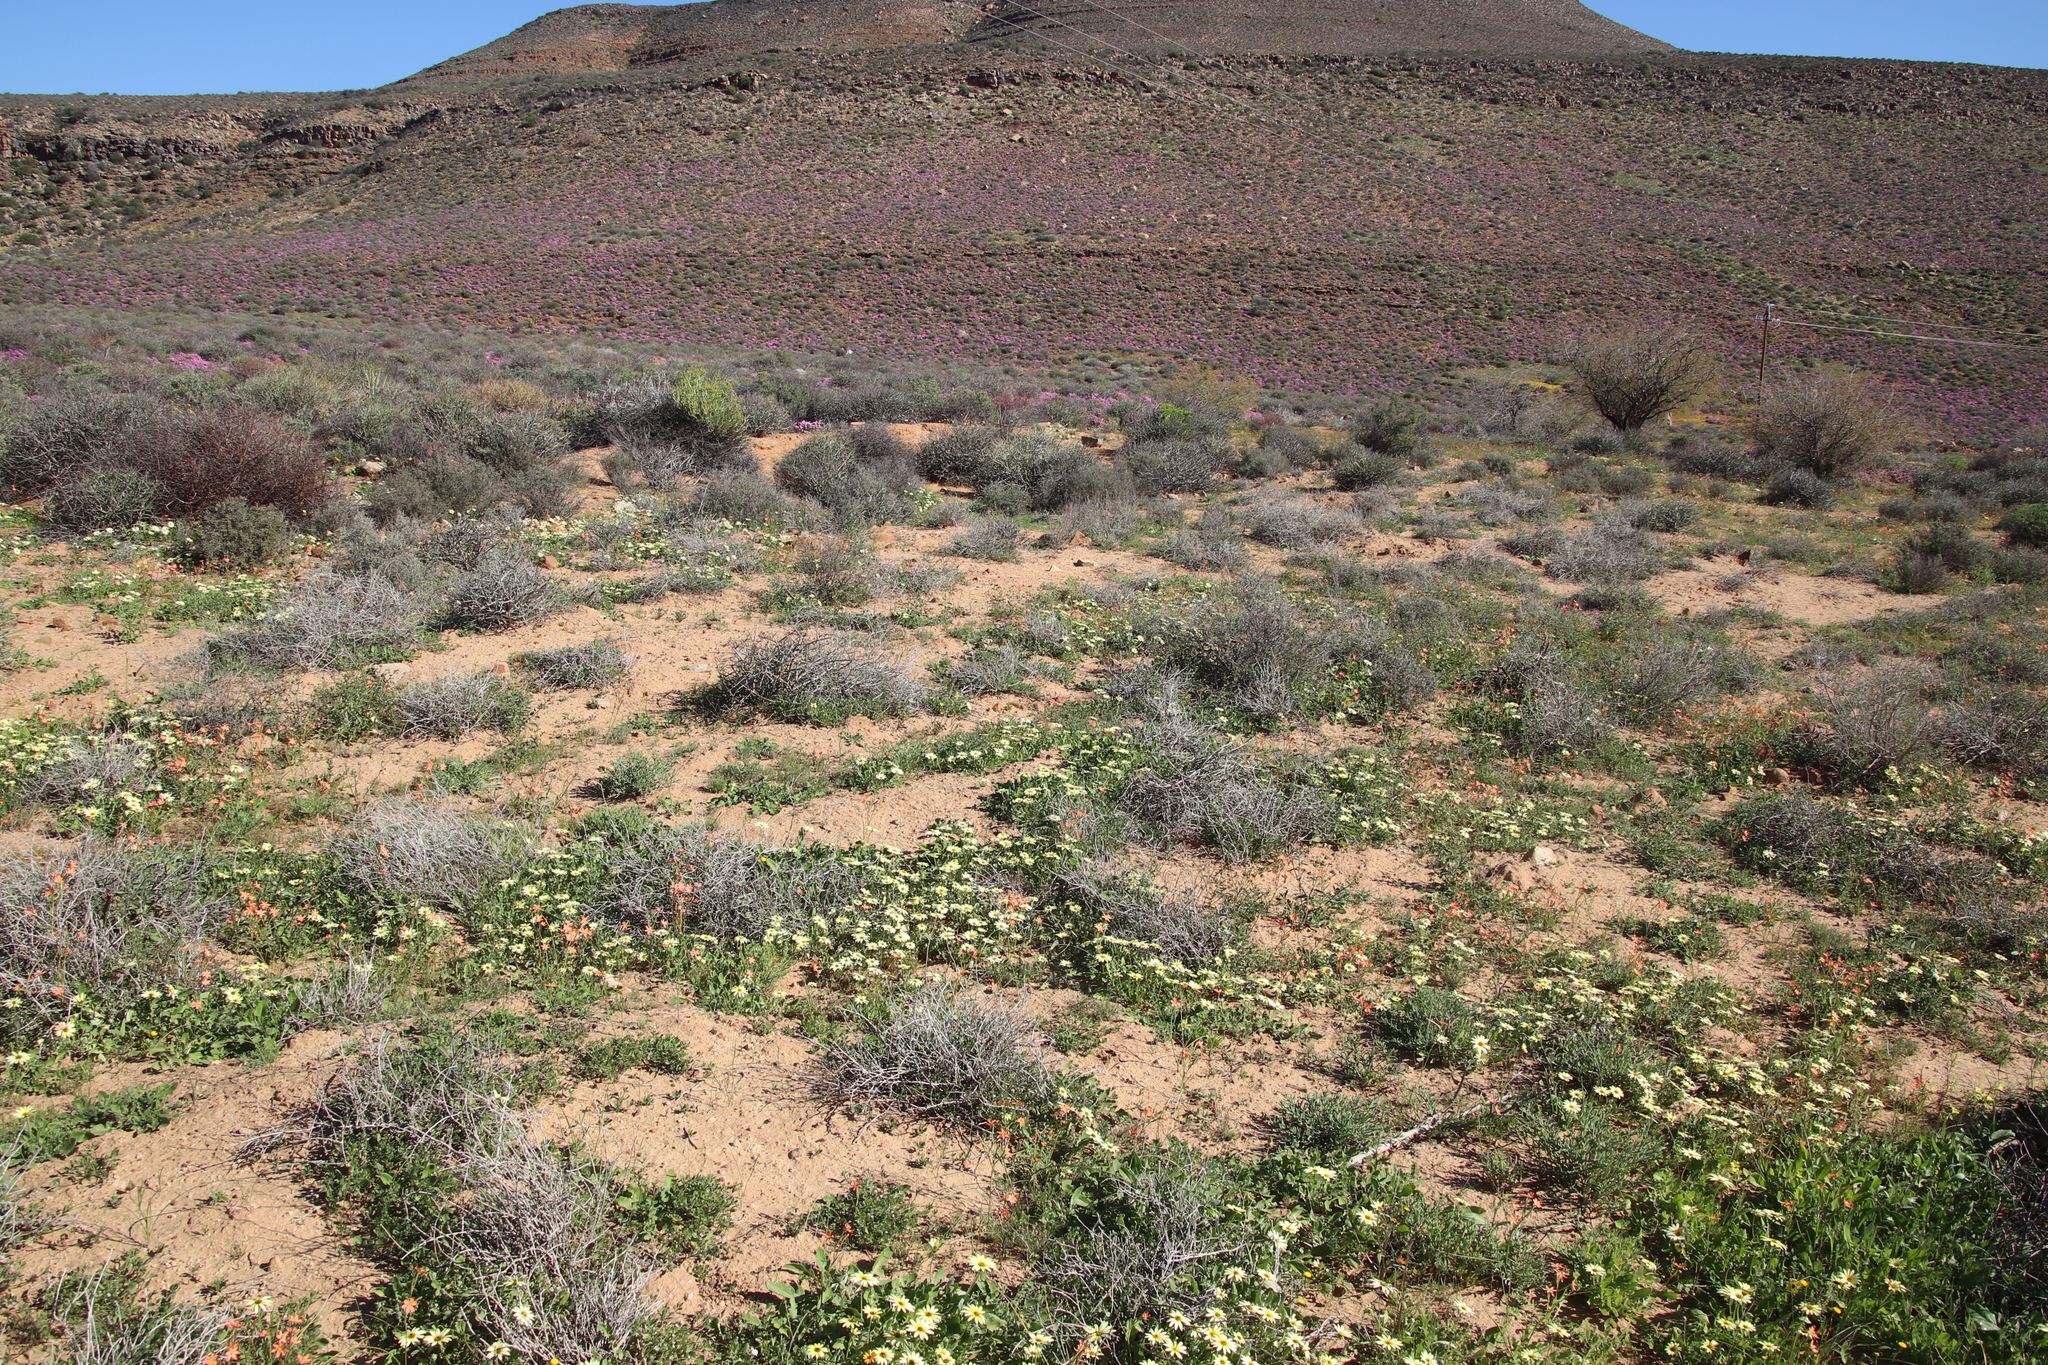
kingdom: Plantae
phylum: Tracheophyta
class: Magnoliopsida
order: Asterales
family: Asteraceae
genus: Arctotheca
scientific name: Arctotheca calendula
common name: Capeweed
